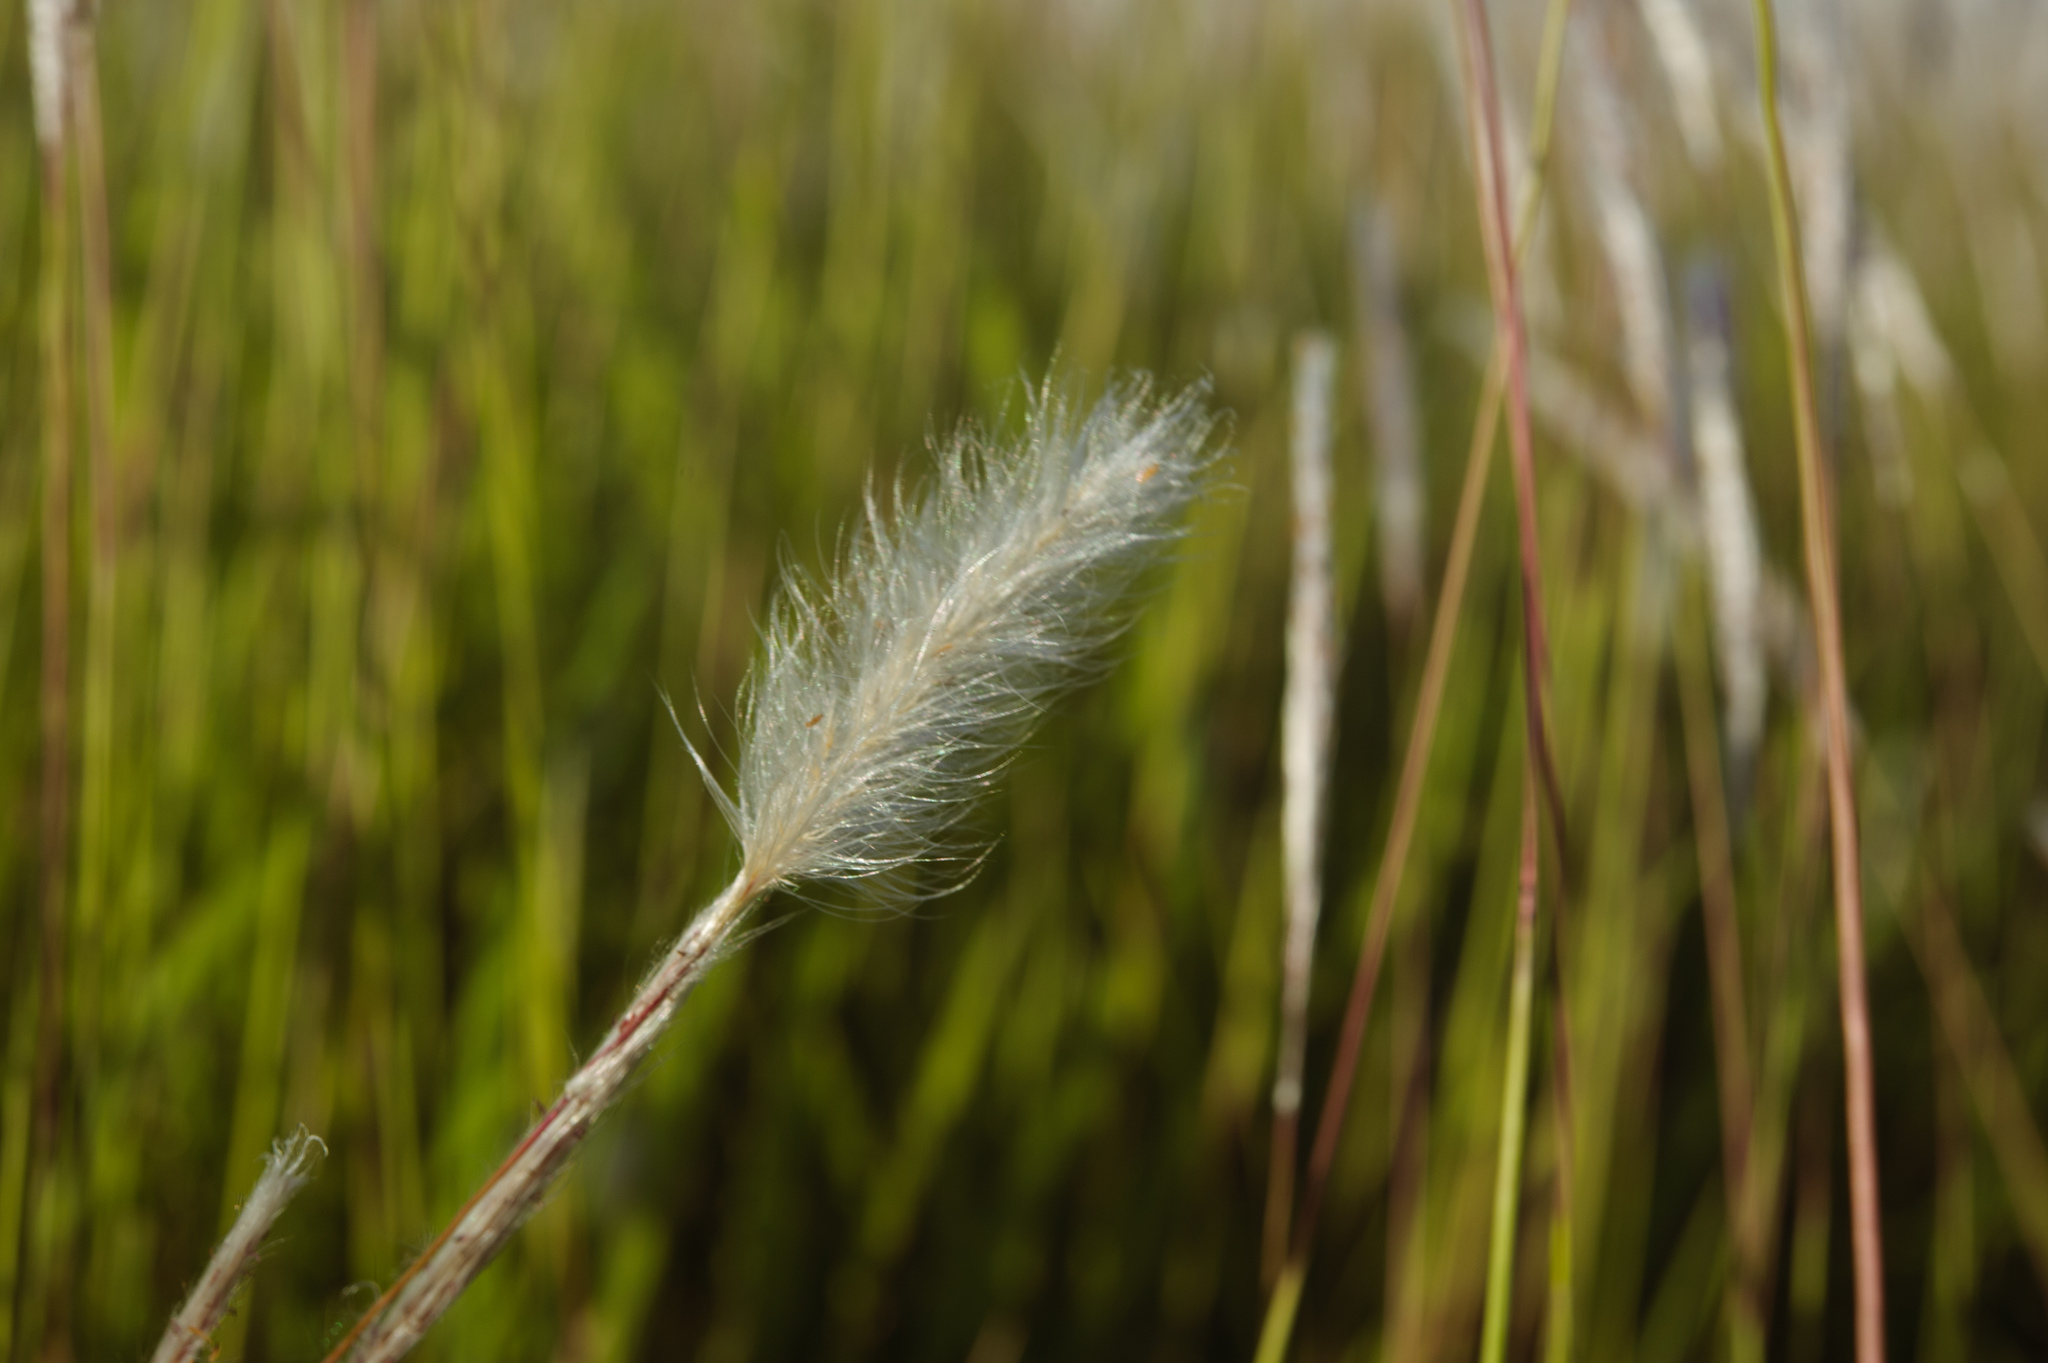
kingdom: Plantae
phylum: Tracheophyta
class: Liliopsida
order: Poales
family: Poaceae
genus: Imperata
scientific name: Imperata cylindrica
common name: Cogongrass
